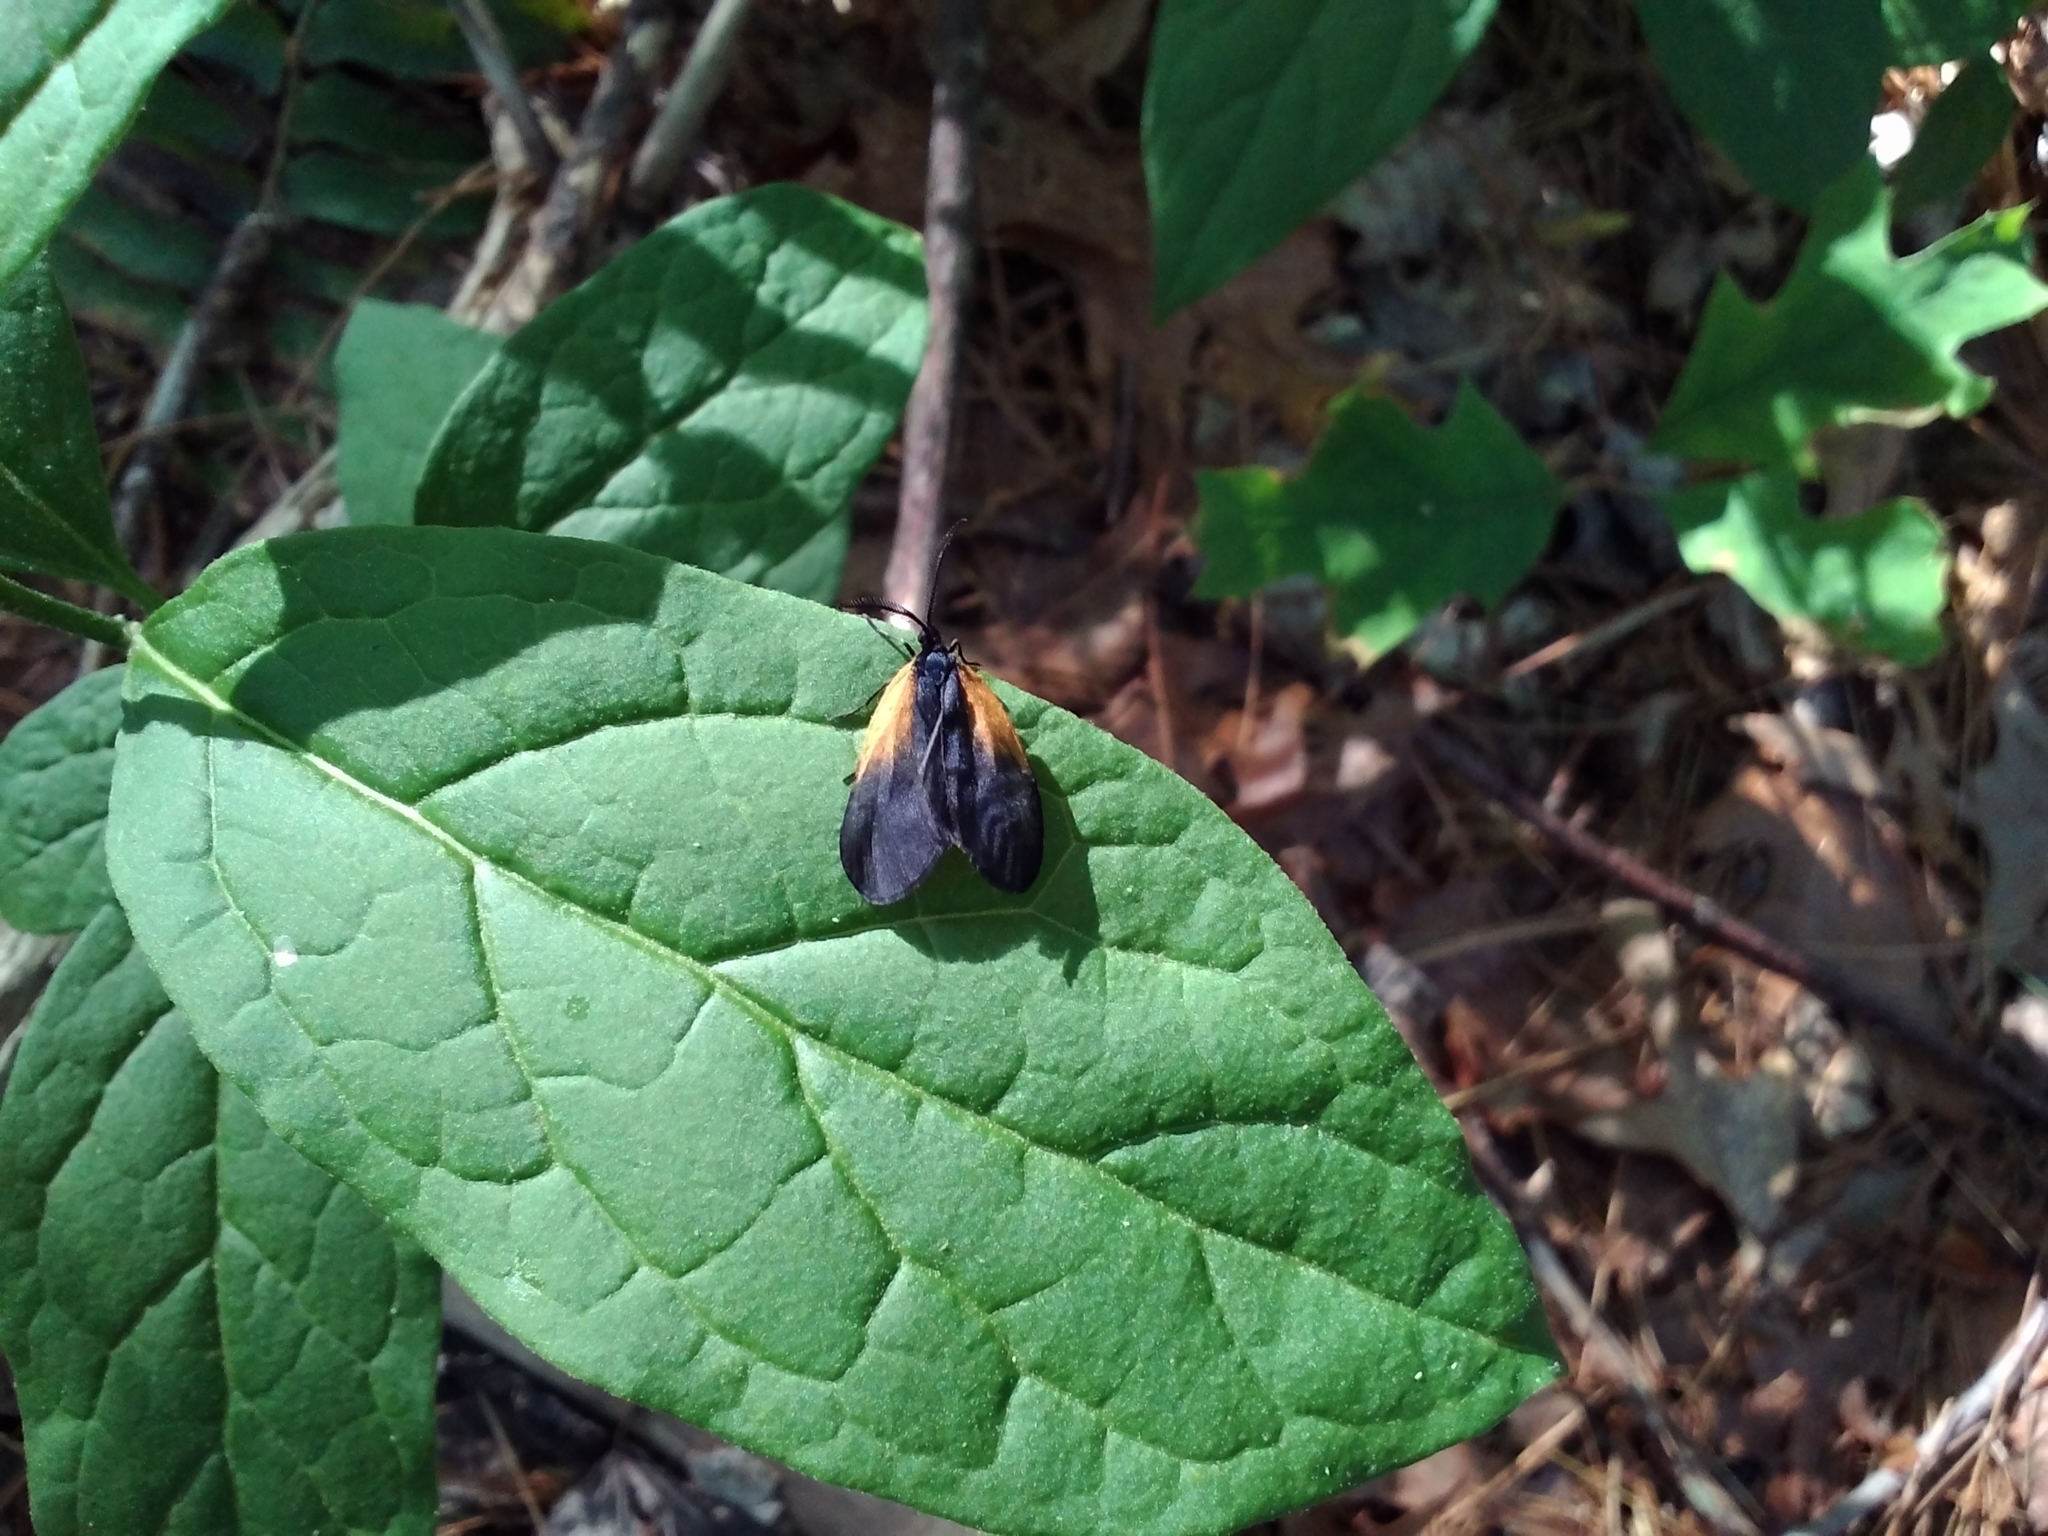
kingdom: Animalia
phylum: Arthropoda
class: Insecta
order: Lepidoptera
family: Zygaenidae
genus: Malthaca
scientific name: Malthaca dimidiata
